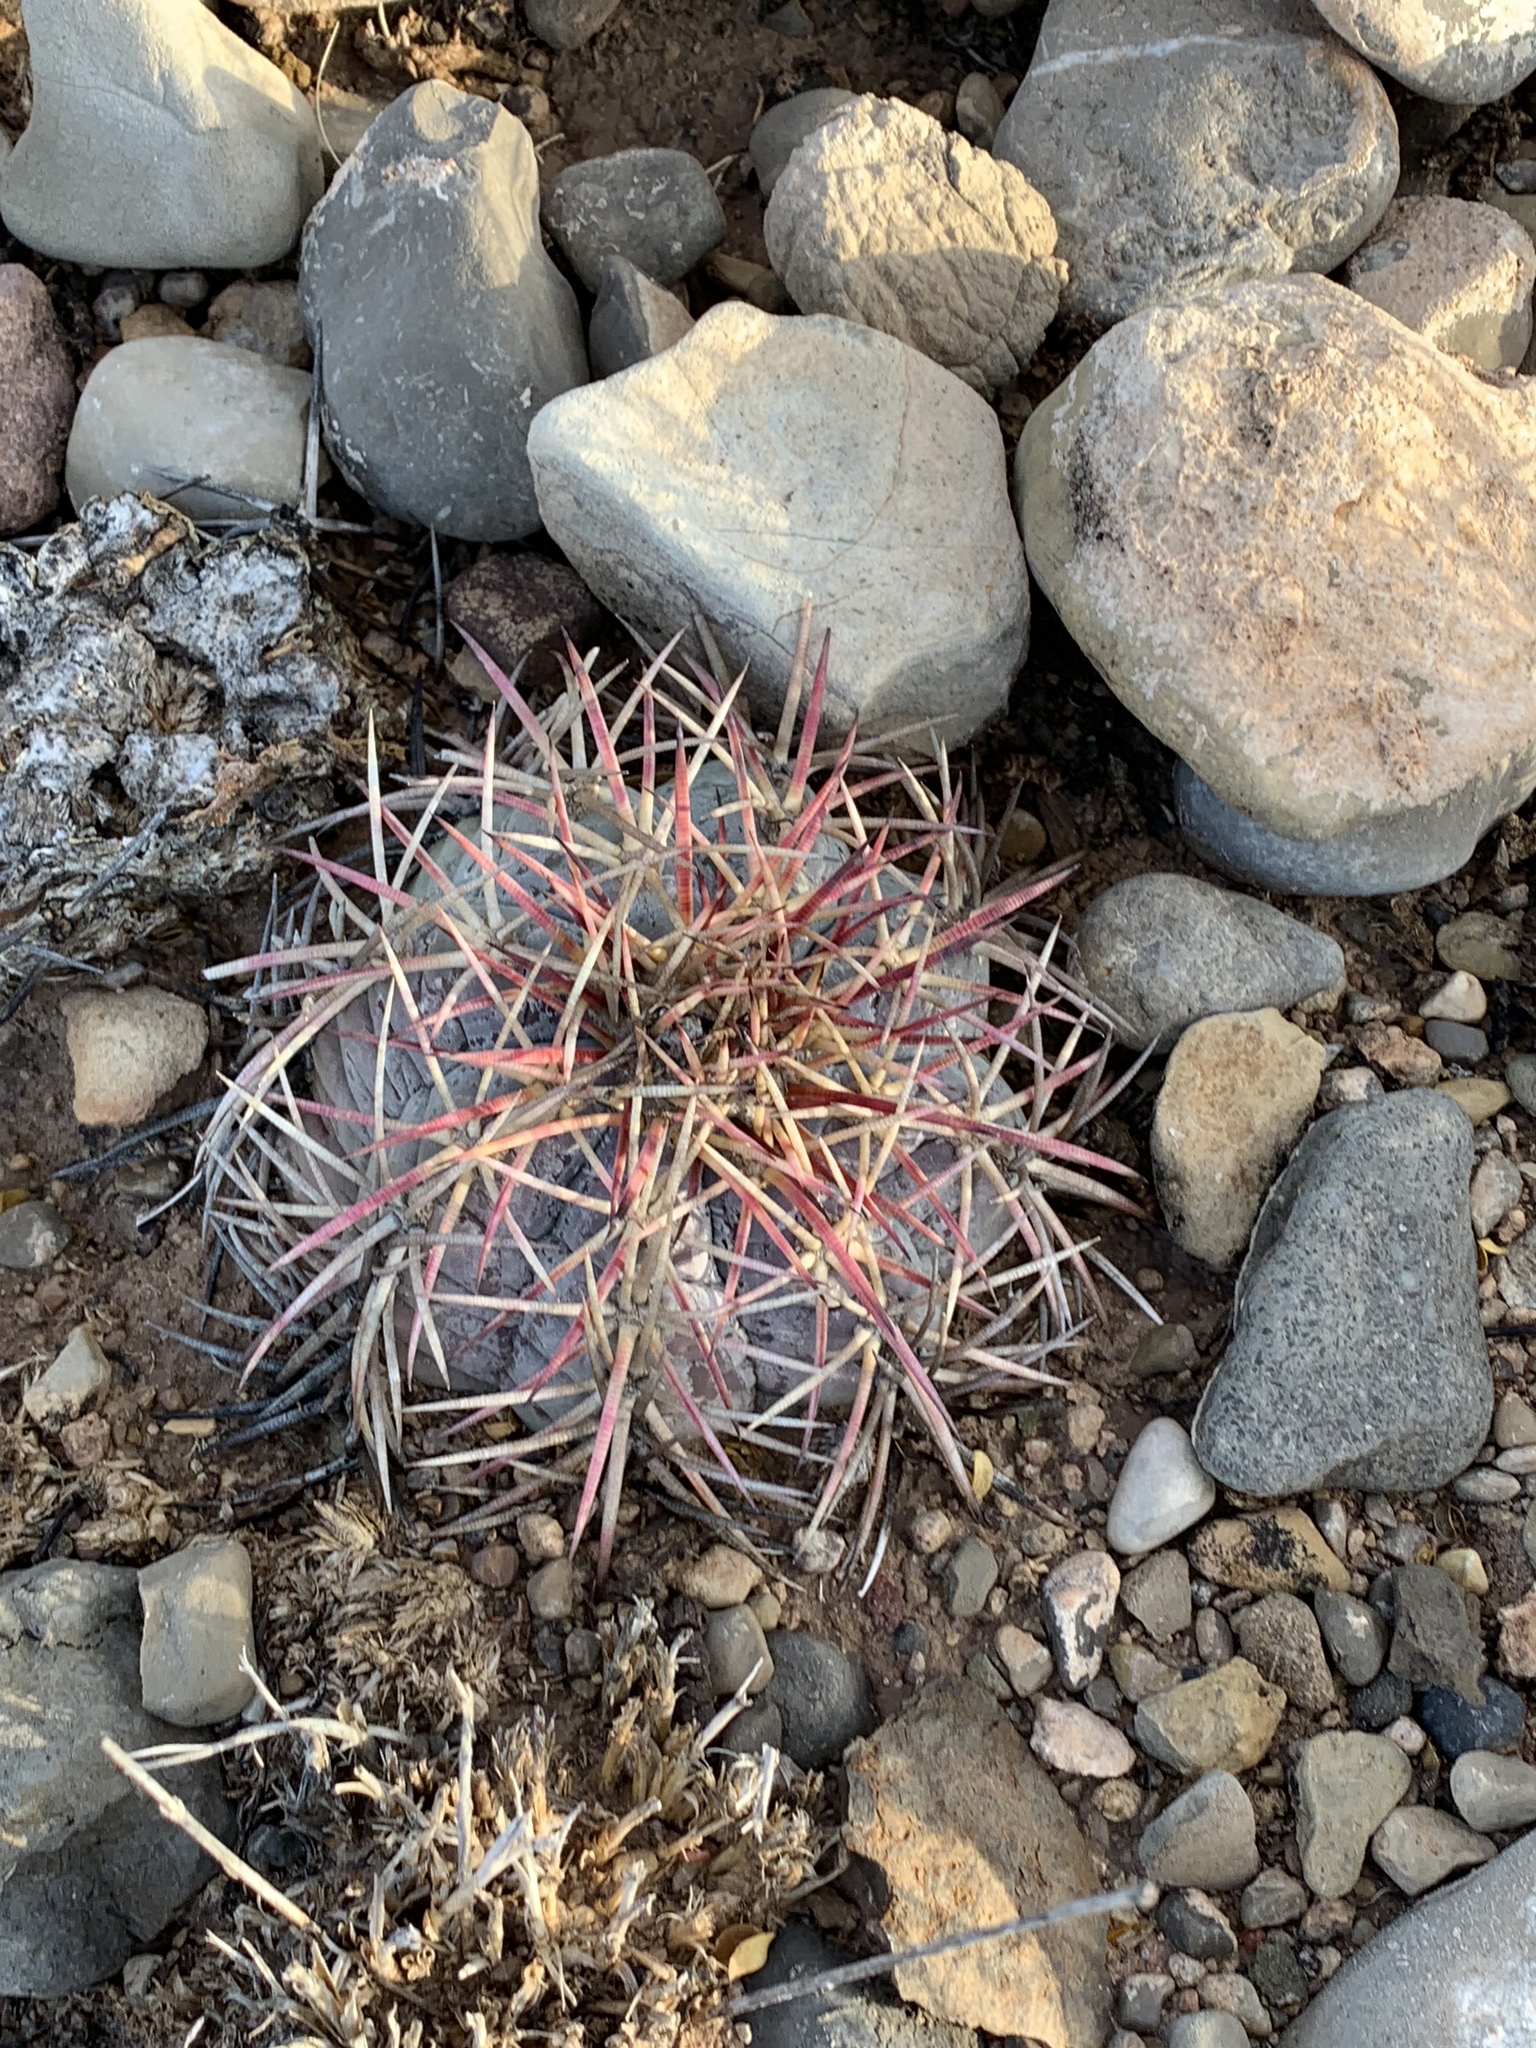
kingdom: Plantae
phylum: Tracheophyta
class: Magnoliopsida
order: Caryophyllales
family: Cactaceae
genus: Echinocactus
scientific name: Echinocactus horizonthalonius
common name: Devilshead
